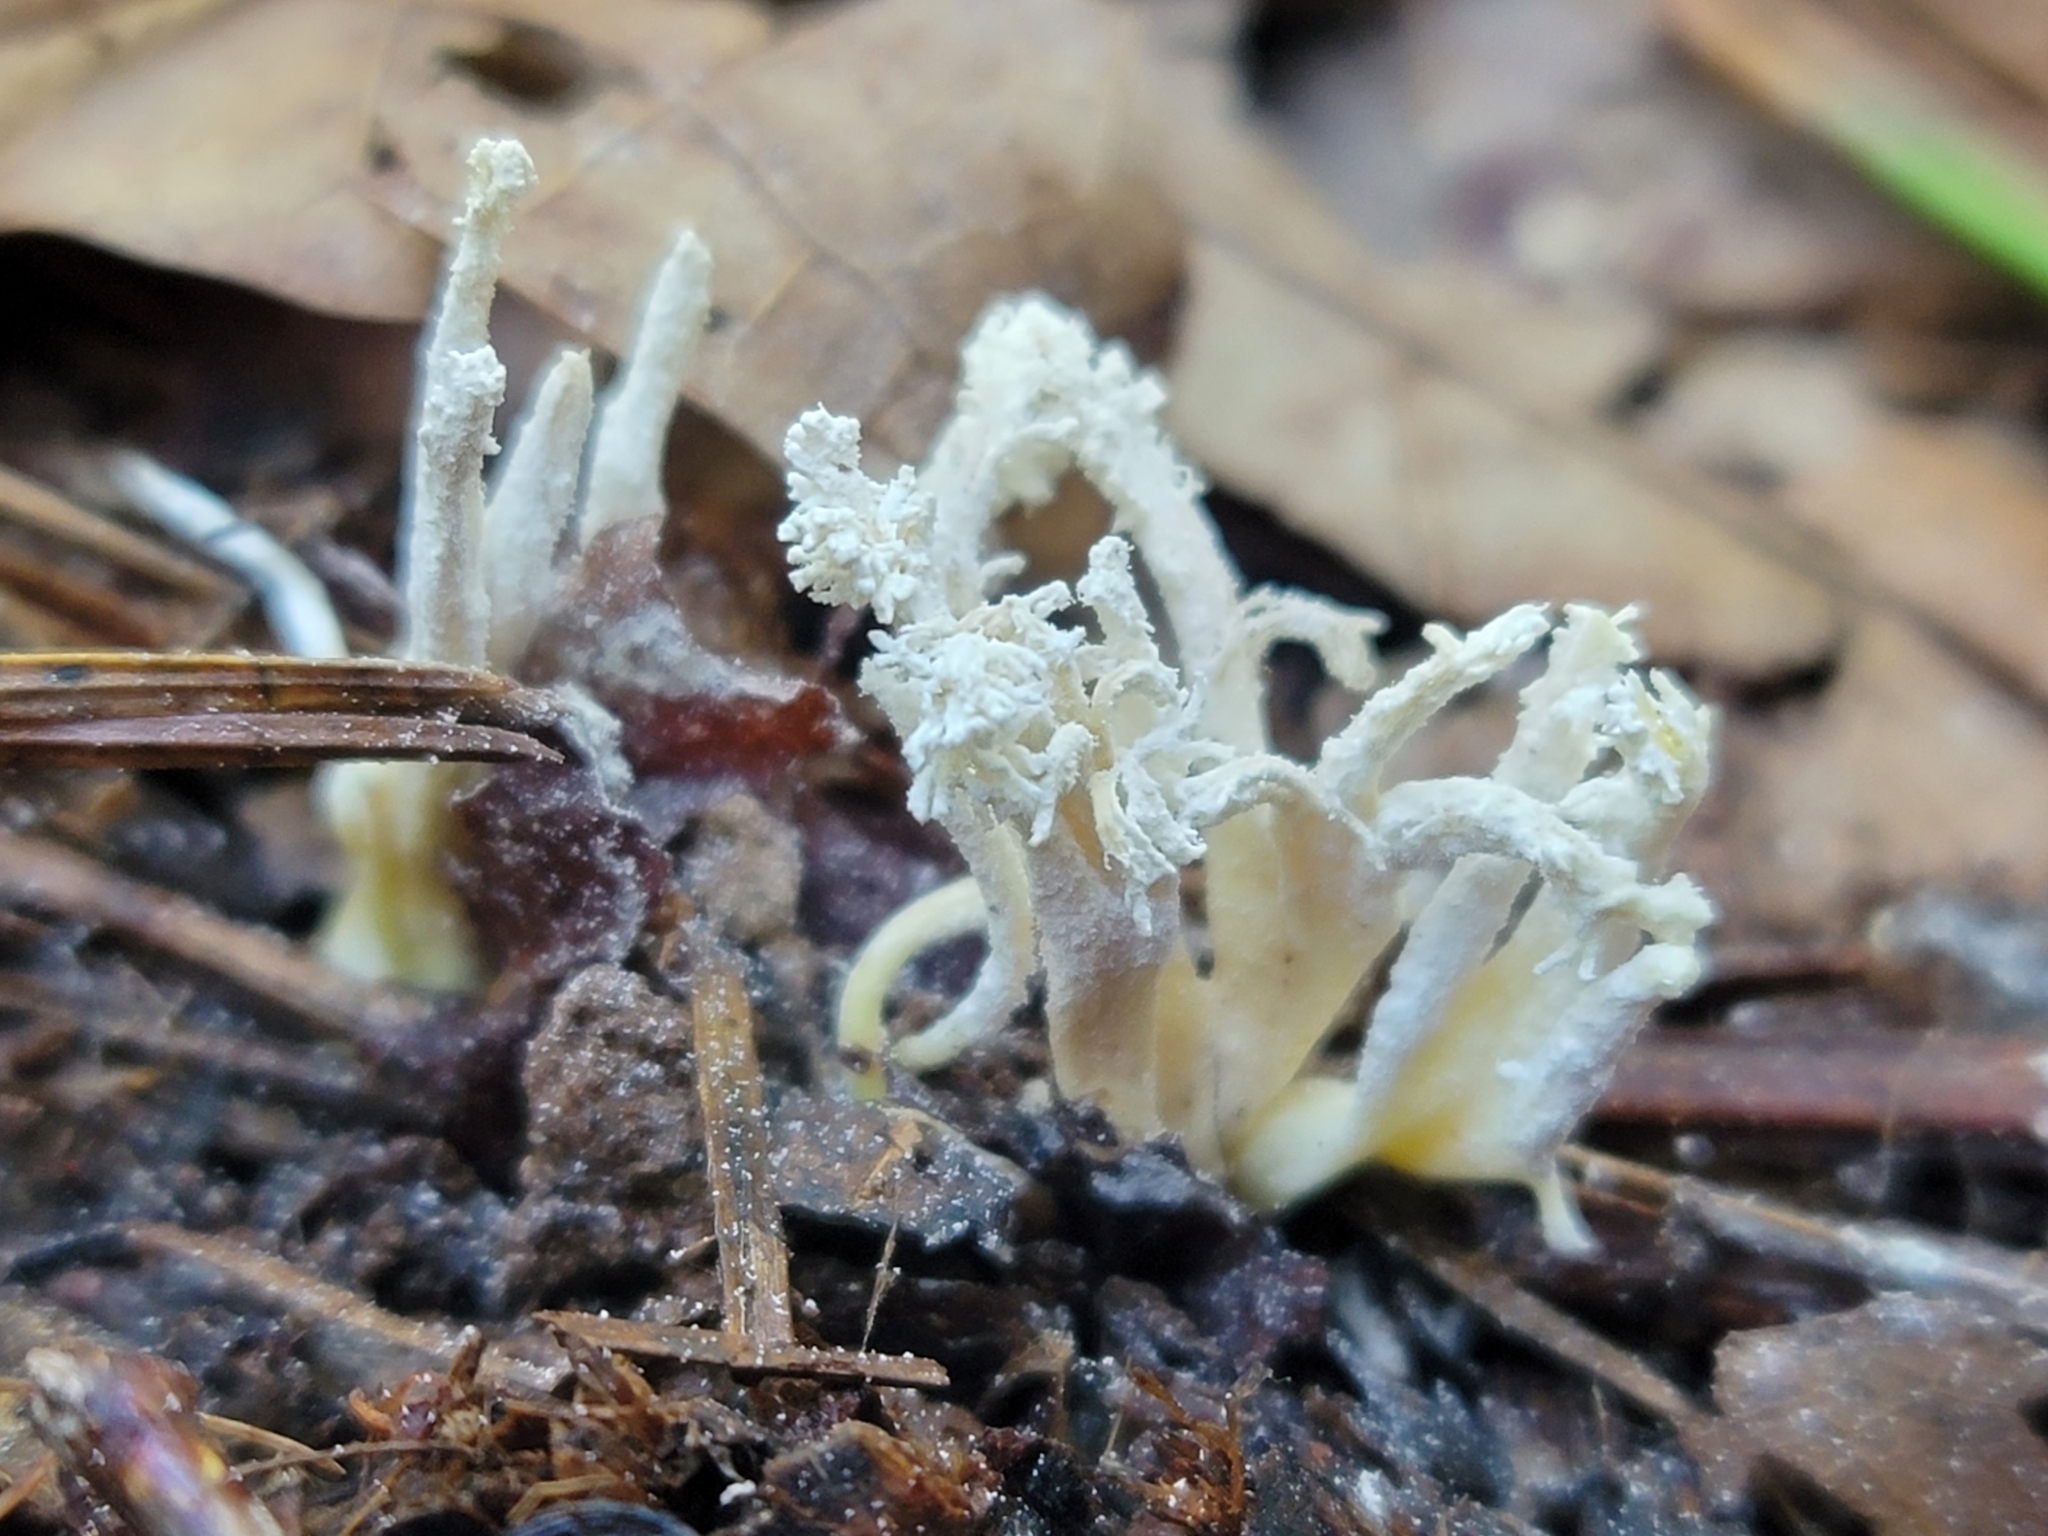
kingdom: Fungi
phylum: Ascomycota
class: Sordariomycetes
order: Hypocreales
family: Cordycipitaceae
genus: Cordyceps
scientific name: Cordyceps tenuipes
